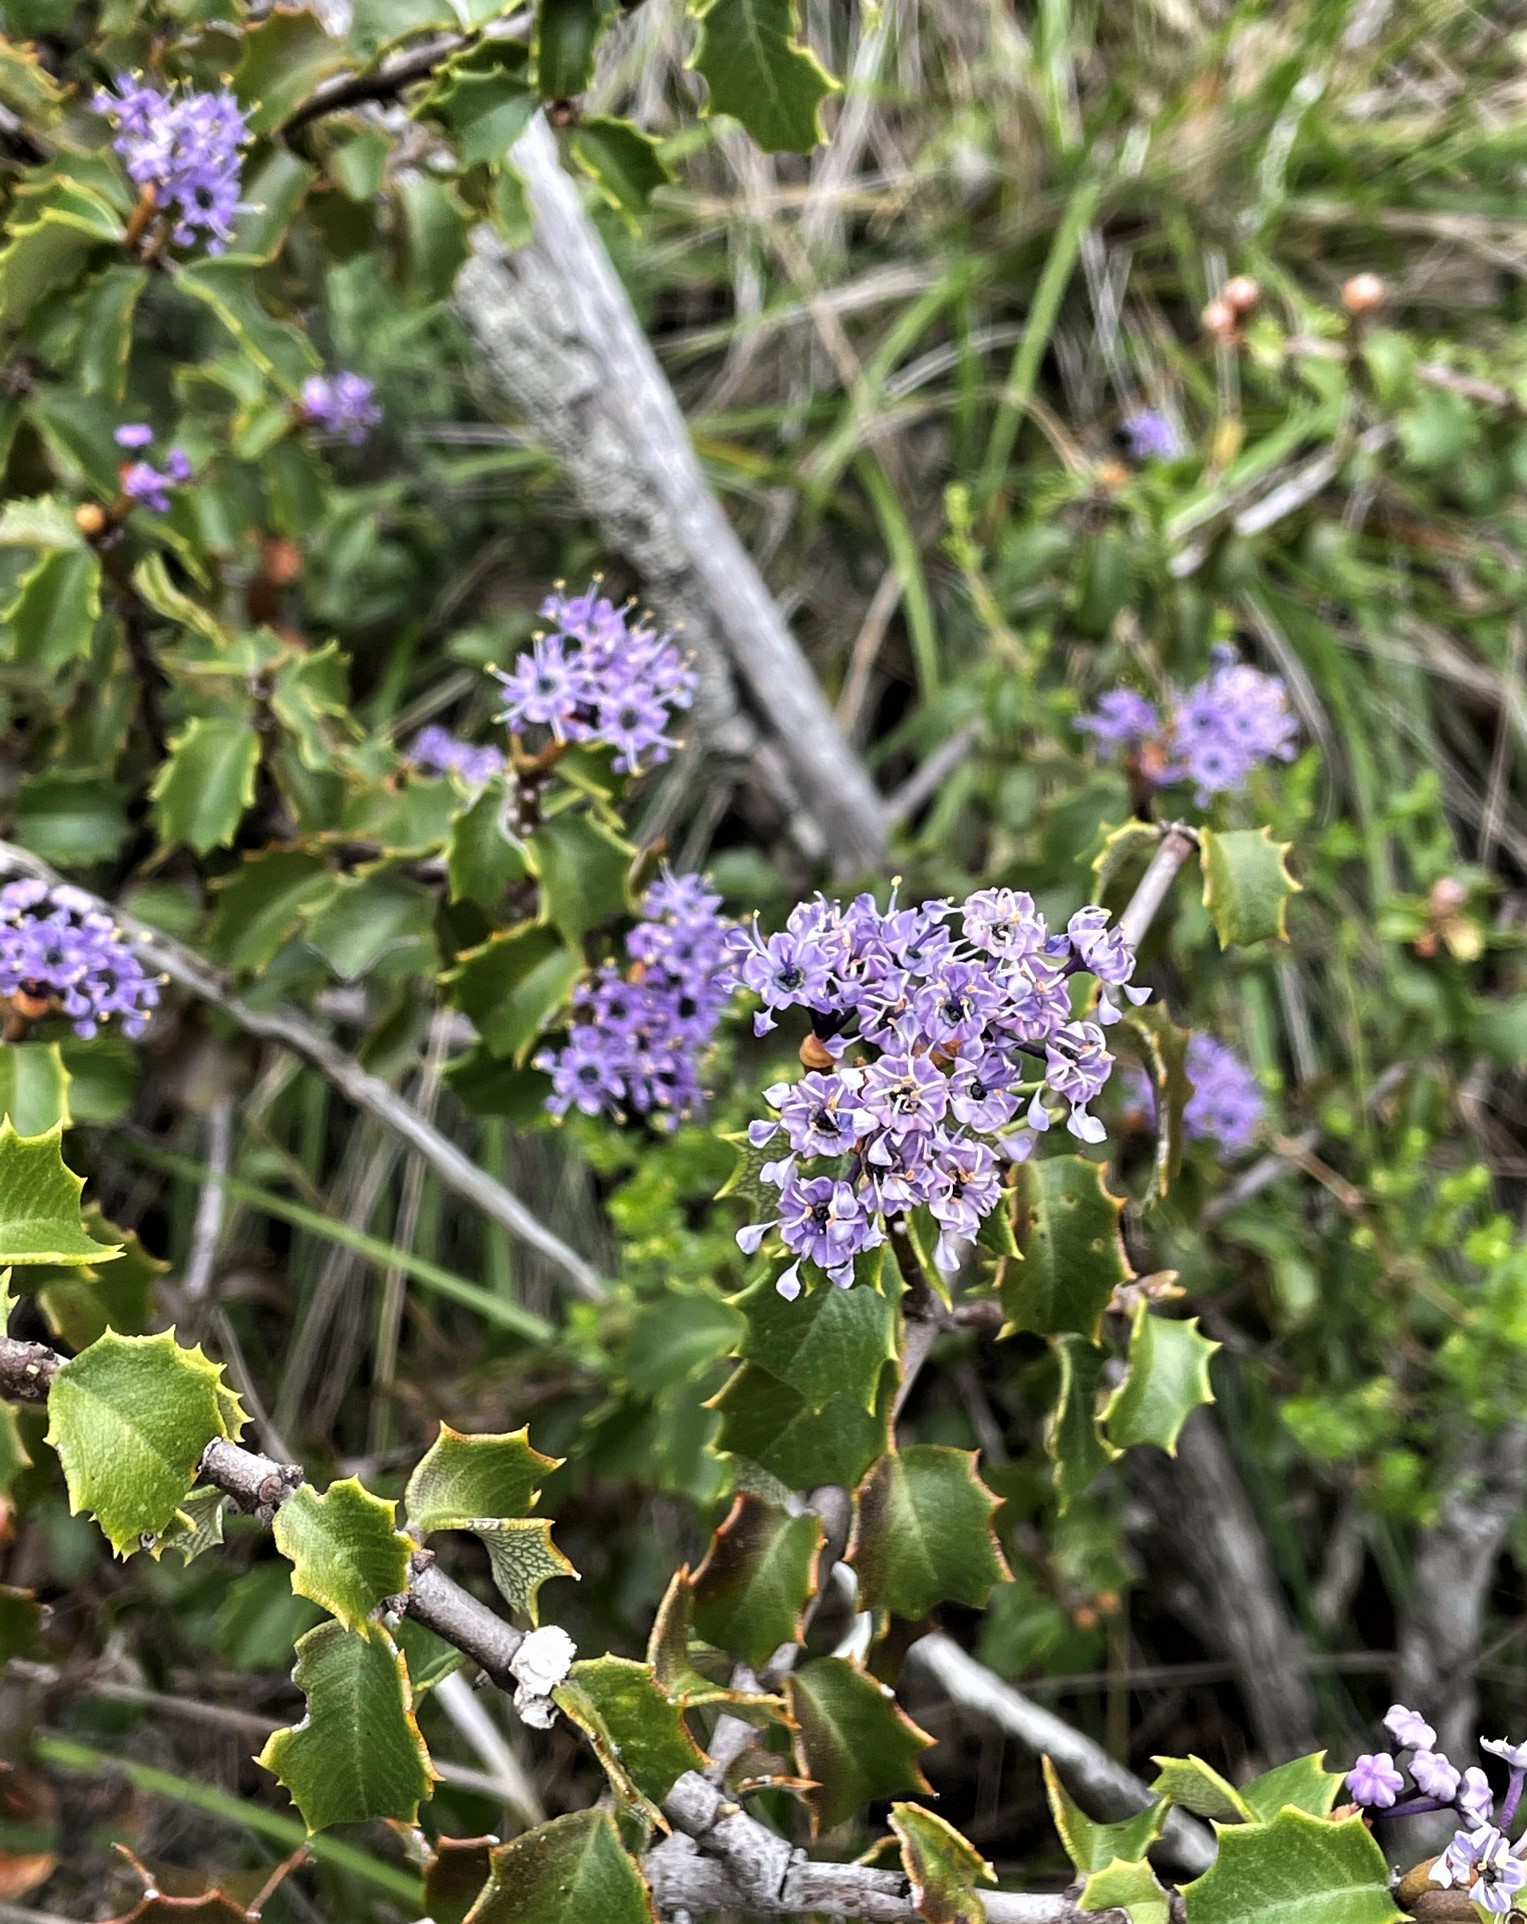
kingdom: Plantae
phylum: Tracheophyta
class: Magnoliopsida
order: Rosales
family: Rhamnaceae
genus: Ceanothus
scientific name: Ceanothus jepsonii
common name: Muskbrush
